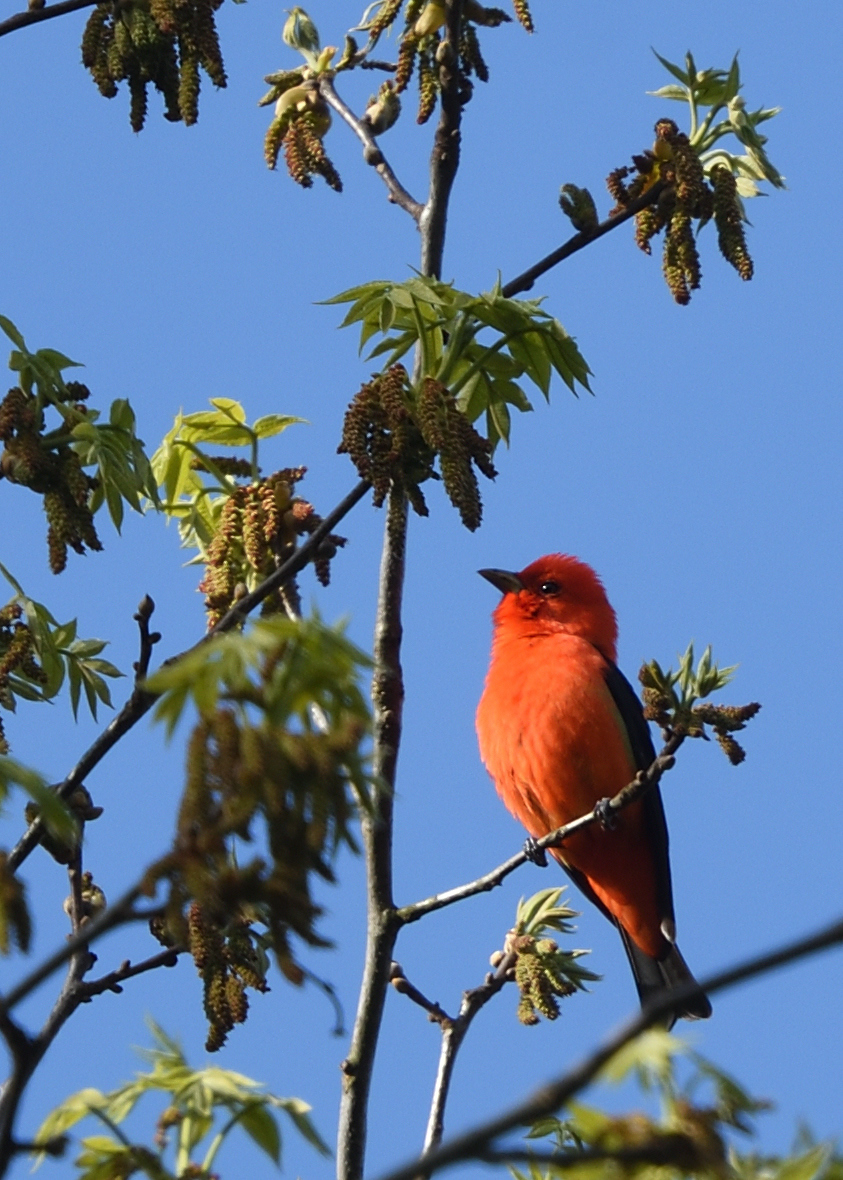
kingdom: Animalia
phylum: Chordata
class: Aves
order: Passeriformes
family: Cardinalidae
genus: Piranga
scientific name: Piranga olivacea
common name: Scarlet tanager
